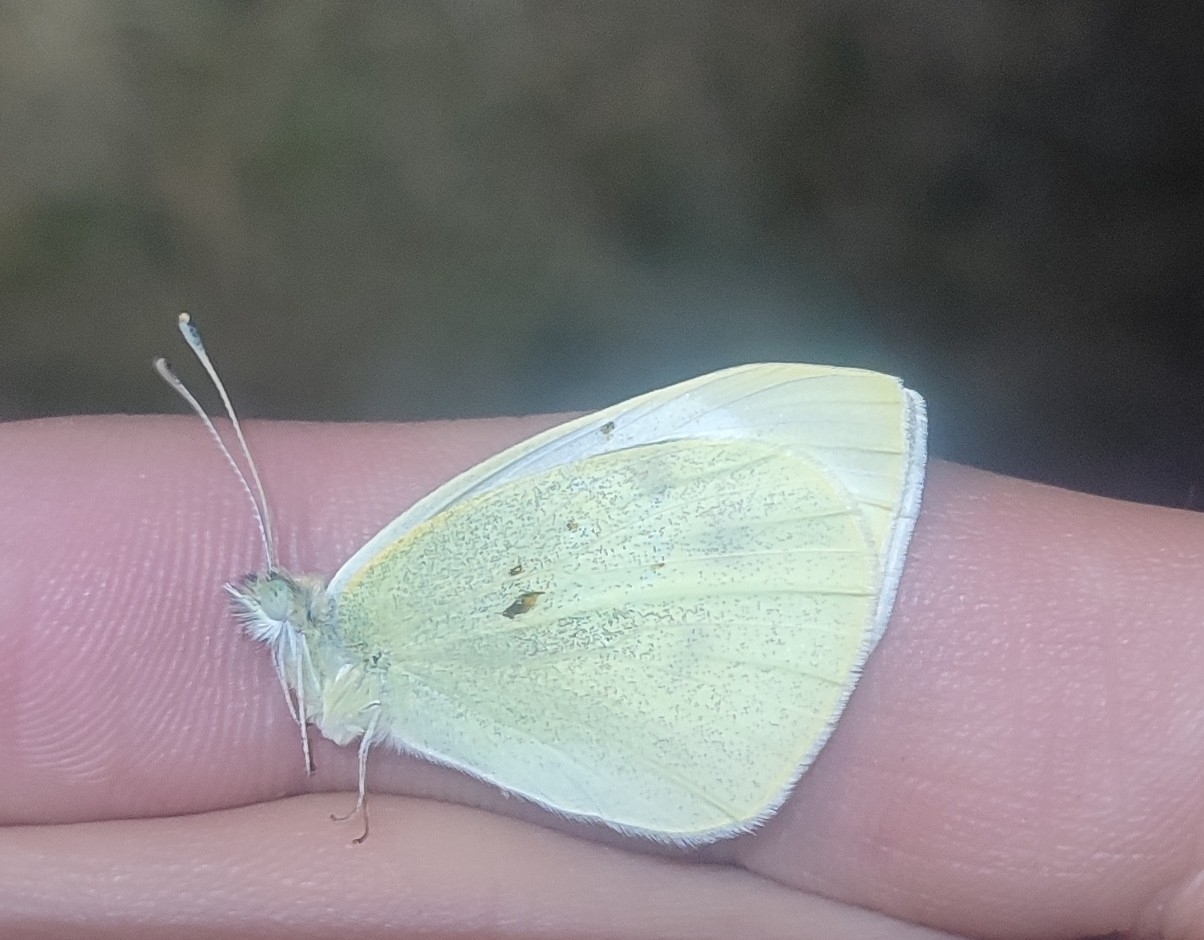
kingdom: Animalia
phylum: Arthropoda
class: Insecta
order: Lepidoptera
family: Pieridae
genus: Pieris
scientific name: Pieris rapae
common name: Small white
